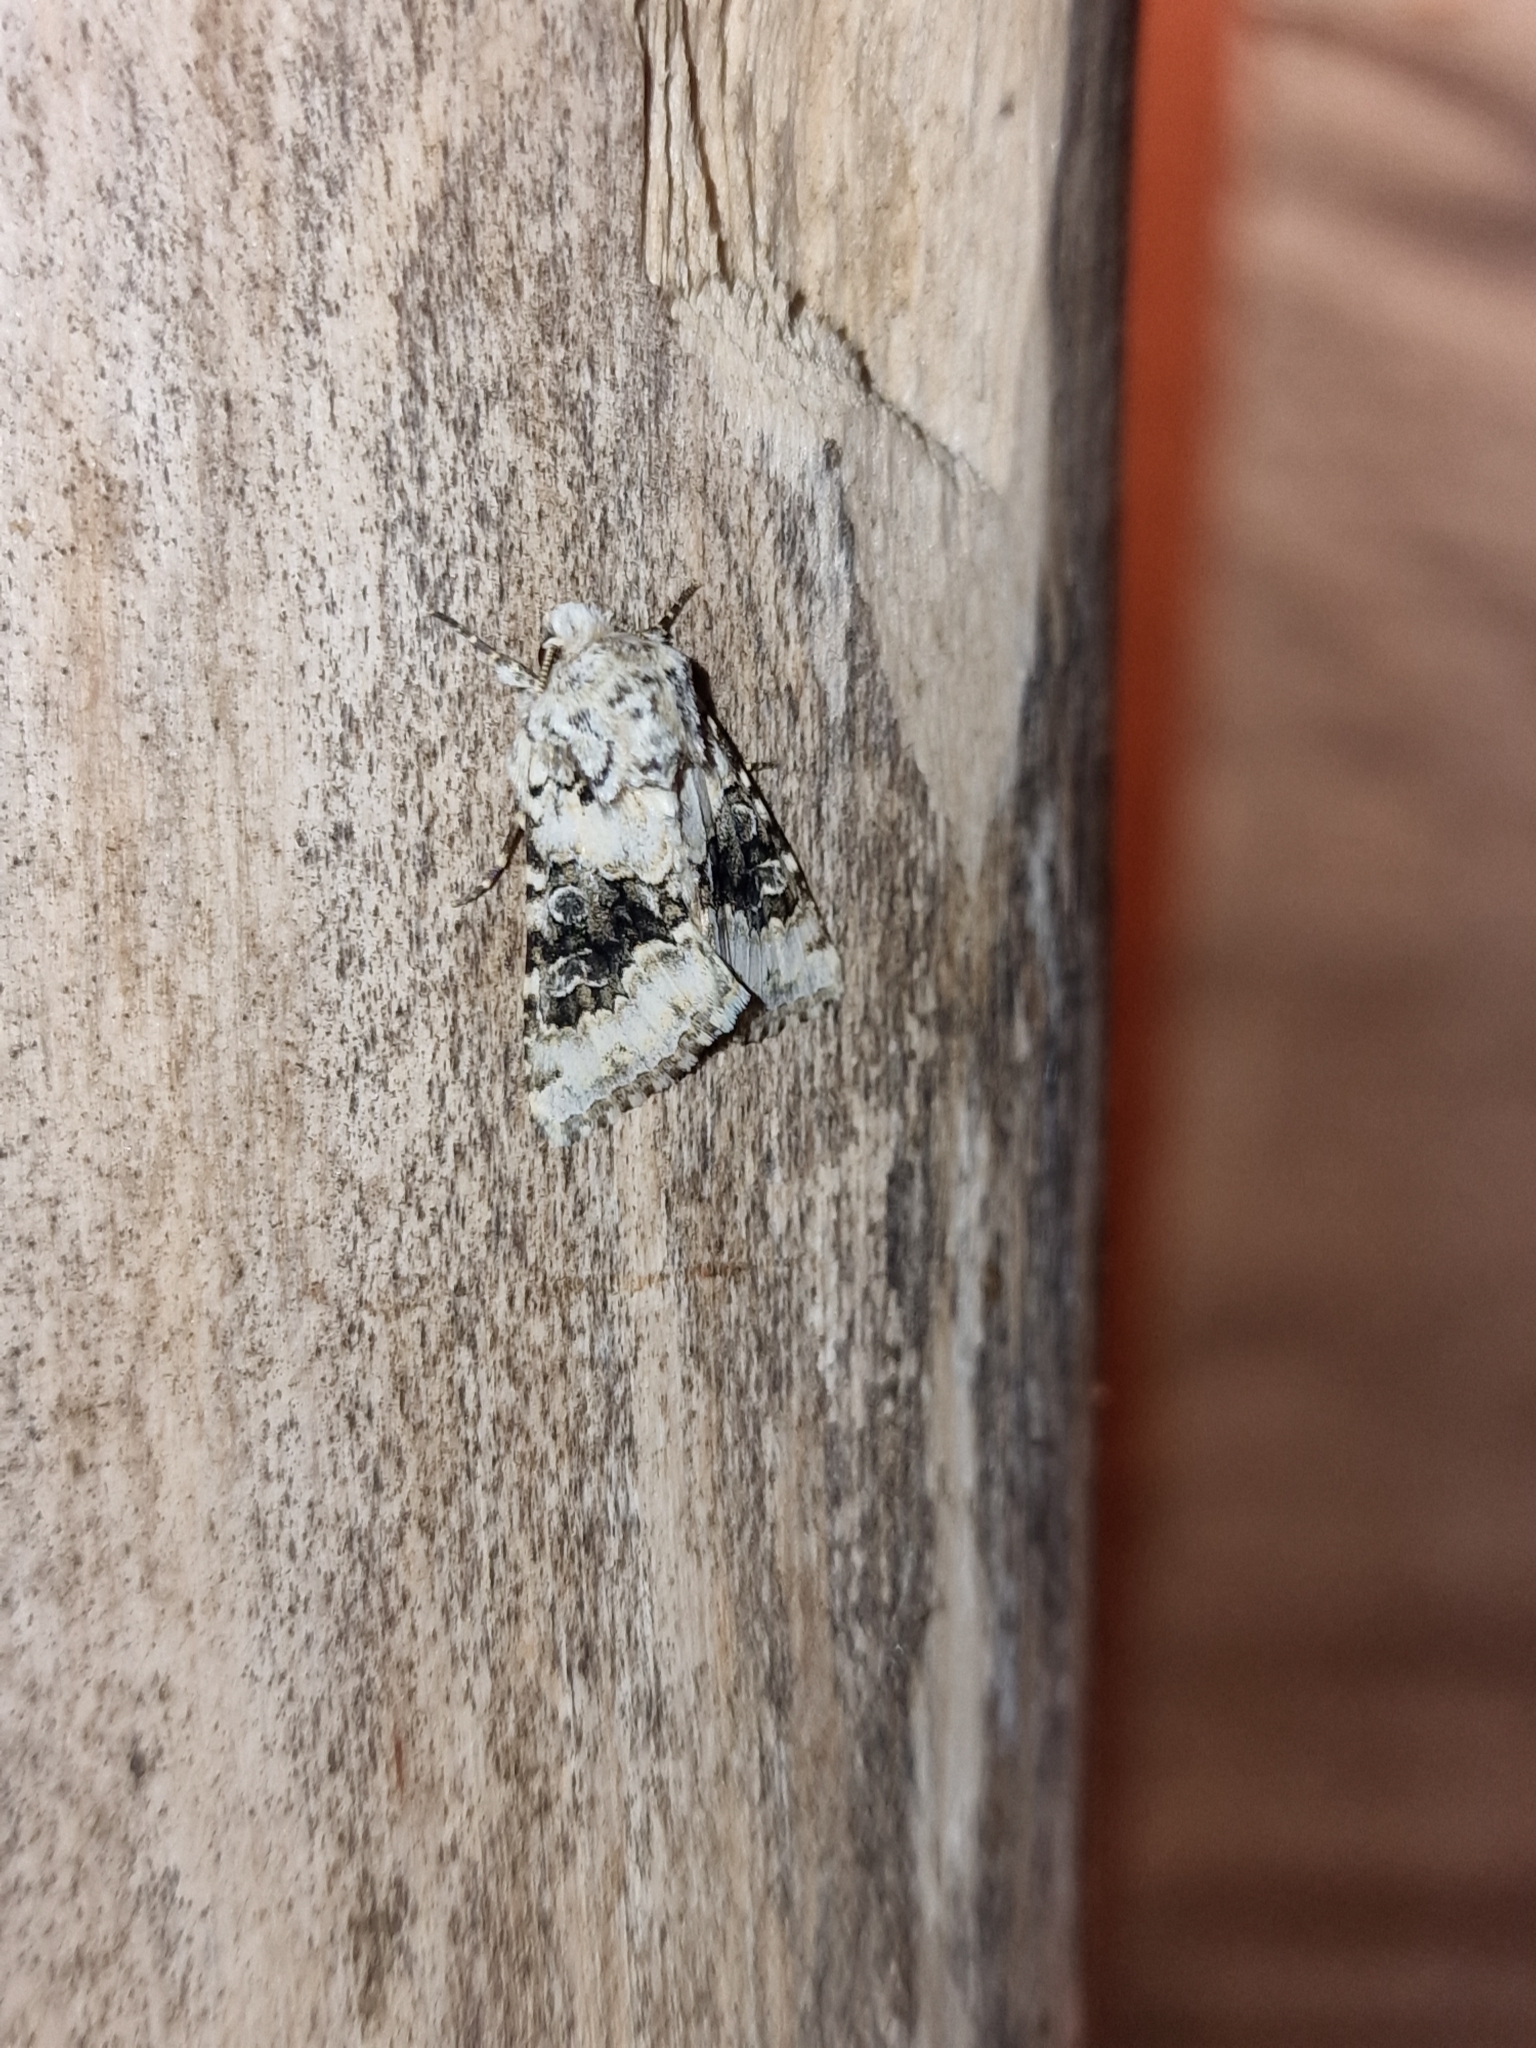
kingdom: Animalia
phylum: Arthropoda
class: Insecta
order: Lepidoptera
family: Noctuidae
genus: Hecatera
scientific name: Hecatera bicolorata
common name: Broad-barred white
